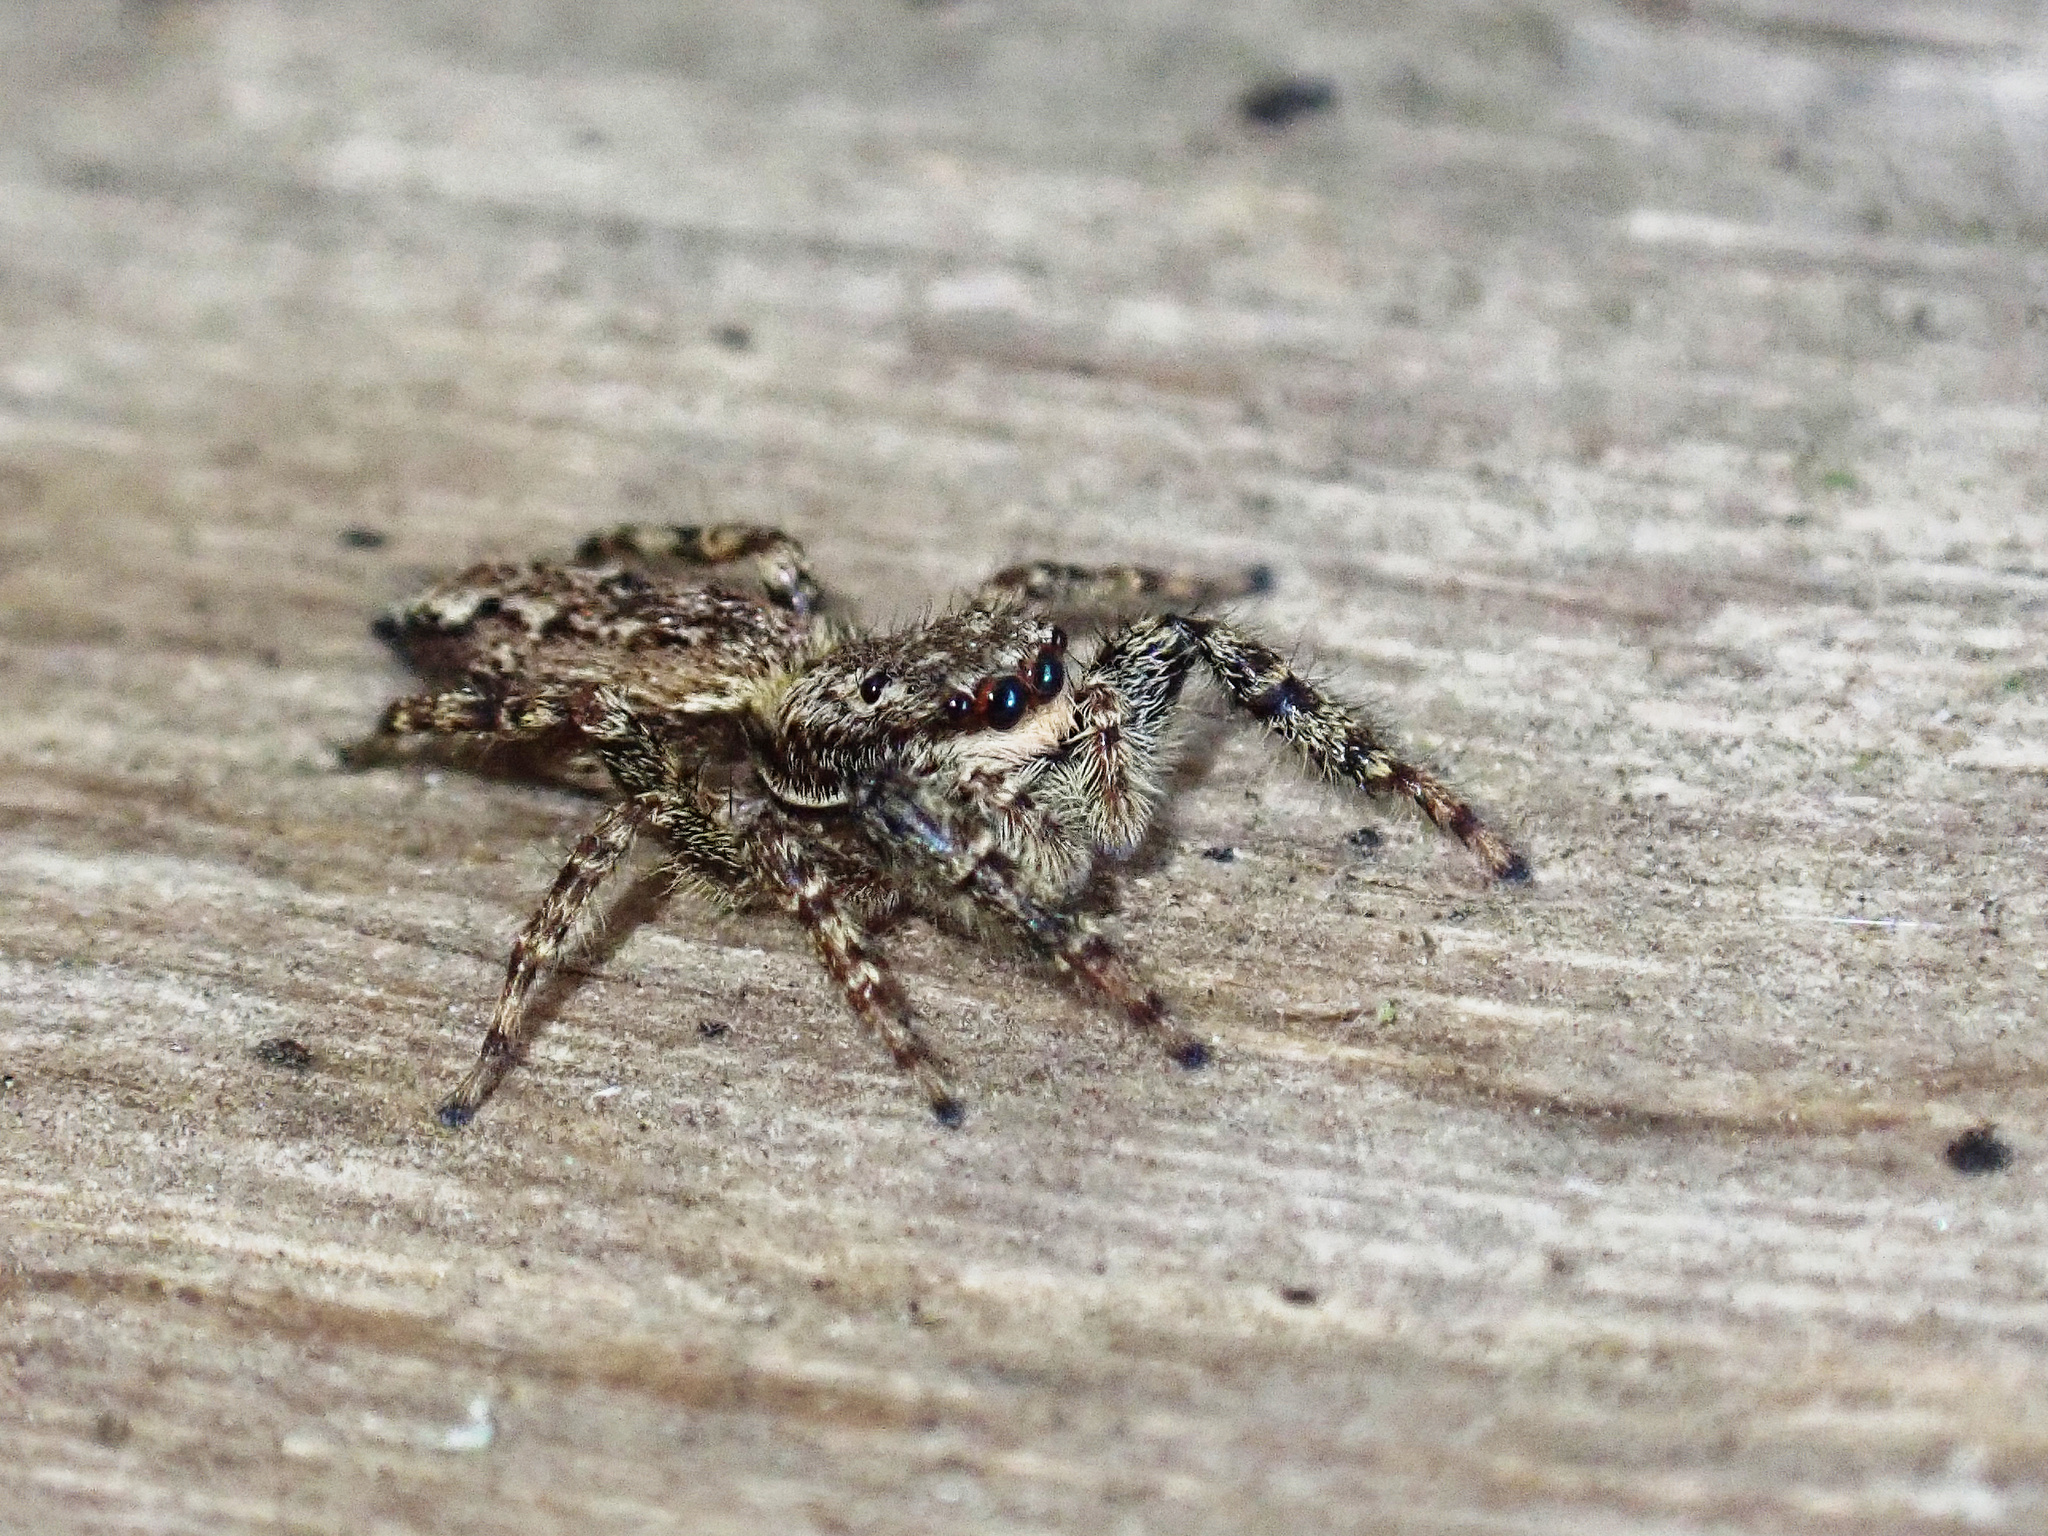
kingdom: Animalia
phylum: Arthropoda
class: Arachnida
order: Araneae
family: Salticidae
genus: Marpissa
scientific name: Marpissa muscosa
